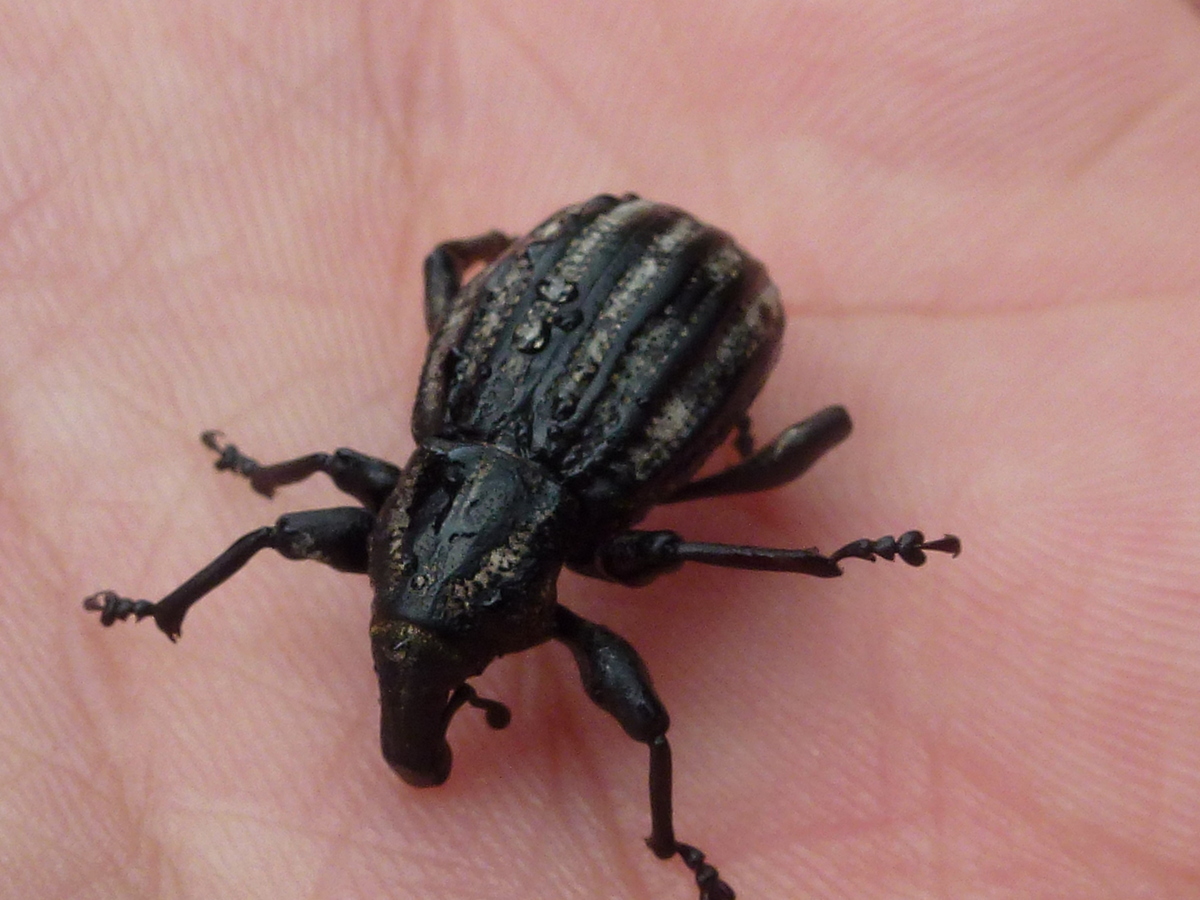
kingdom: Animalia
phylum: Arthropoda
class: Insecta
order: Coleoptera
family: Curculionidae
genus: Lyperobius
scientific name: Lyperobius hudsoni
